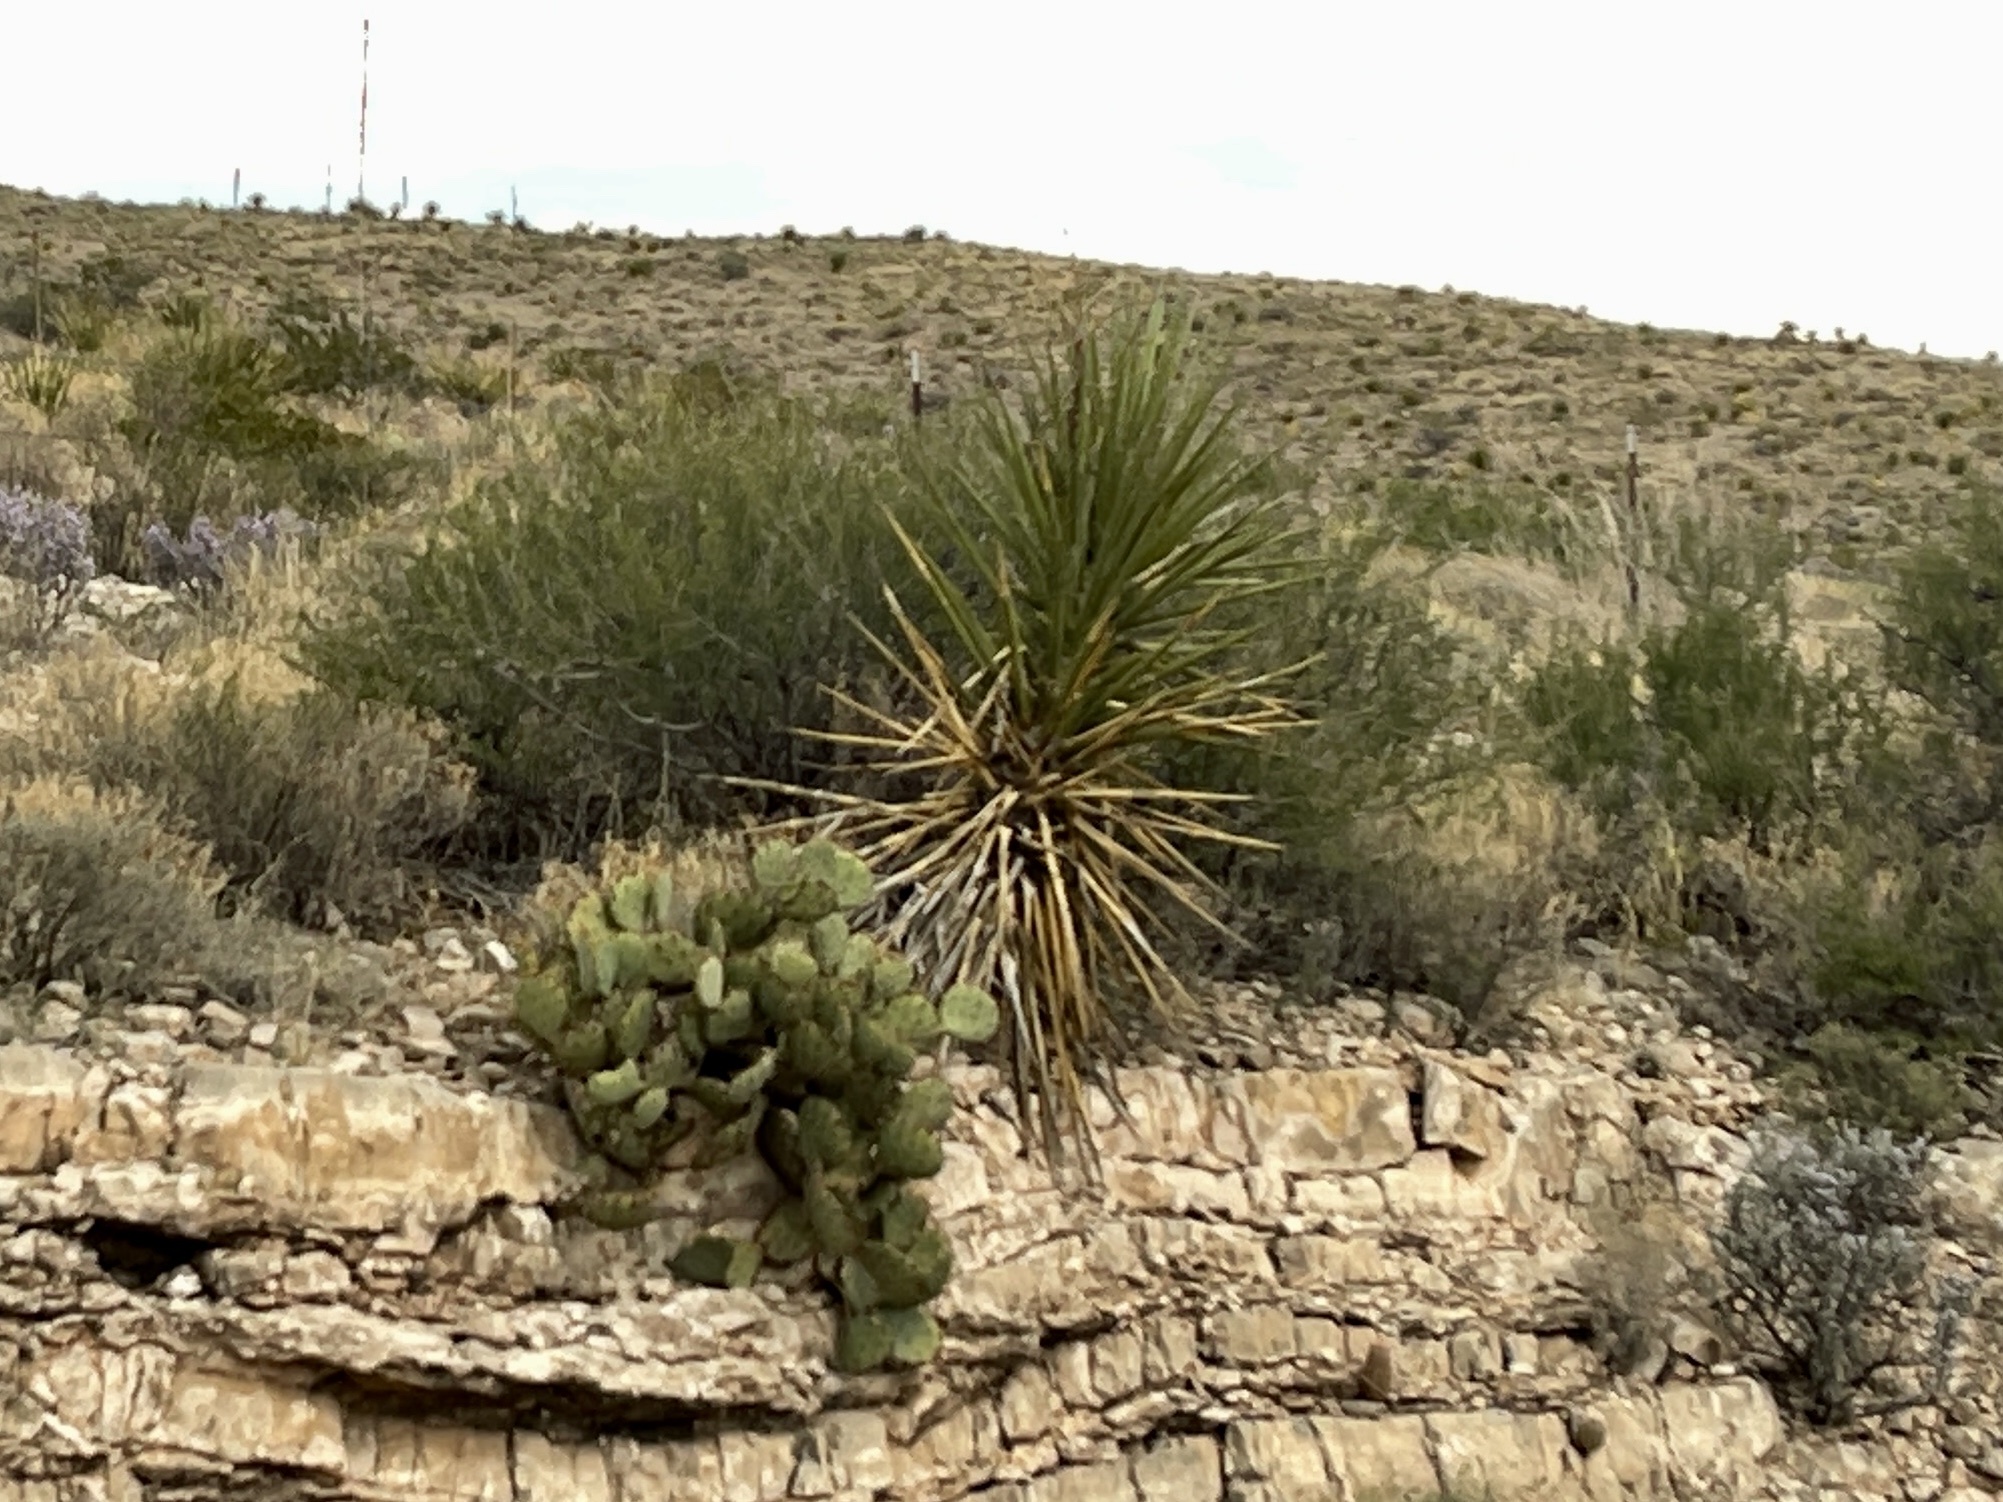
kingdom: Plantae
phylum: Tracheophyta
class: Liliopsida
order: Asparagales
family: Asparagaceae
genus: Yucca
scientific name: Yucca treculiana
